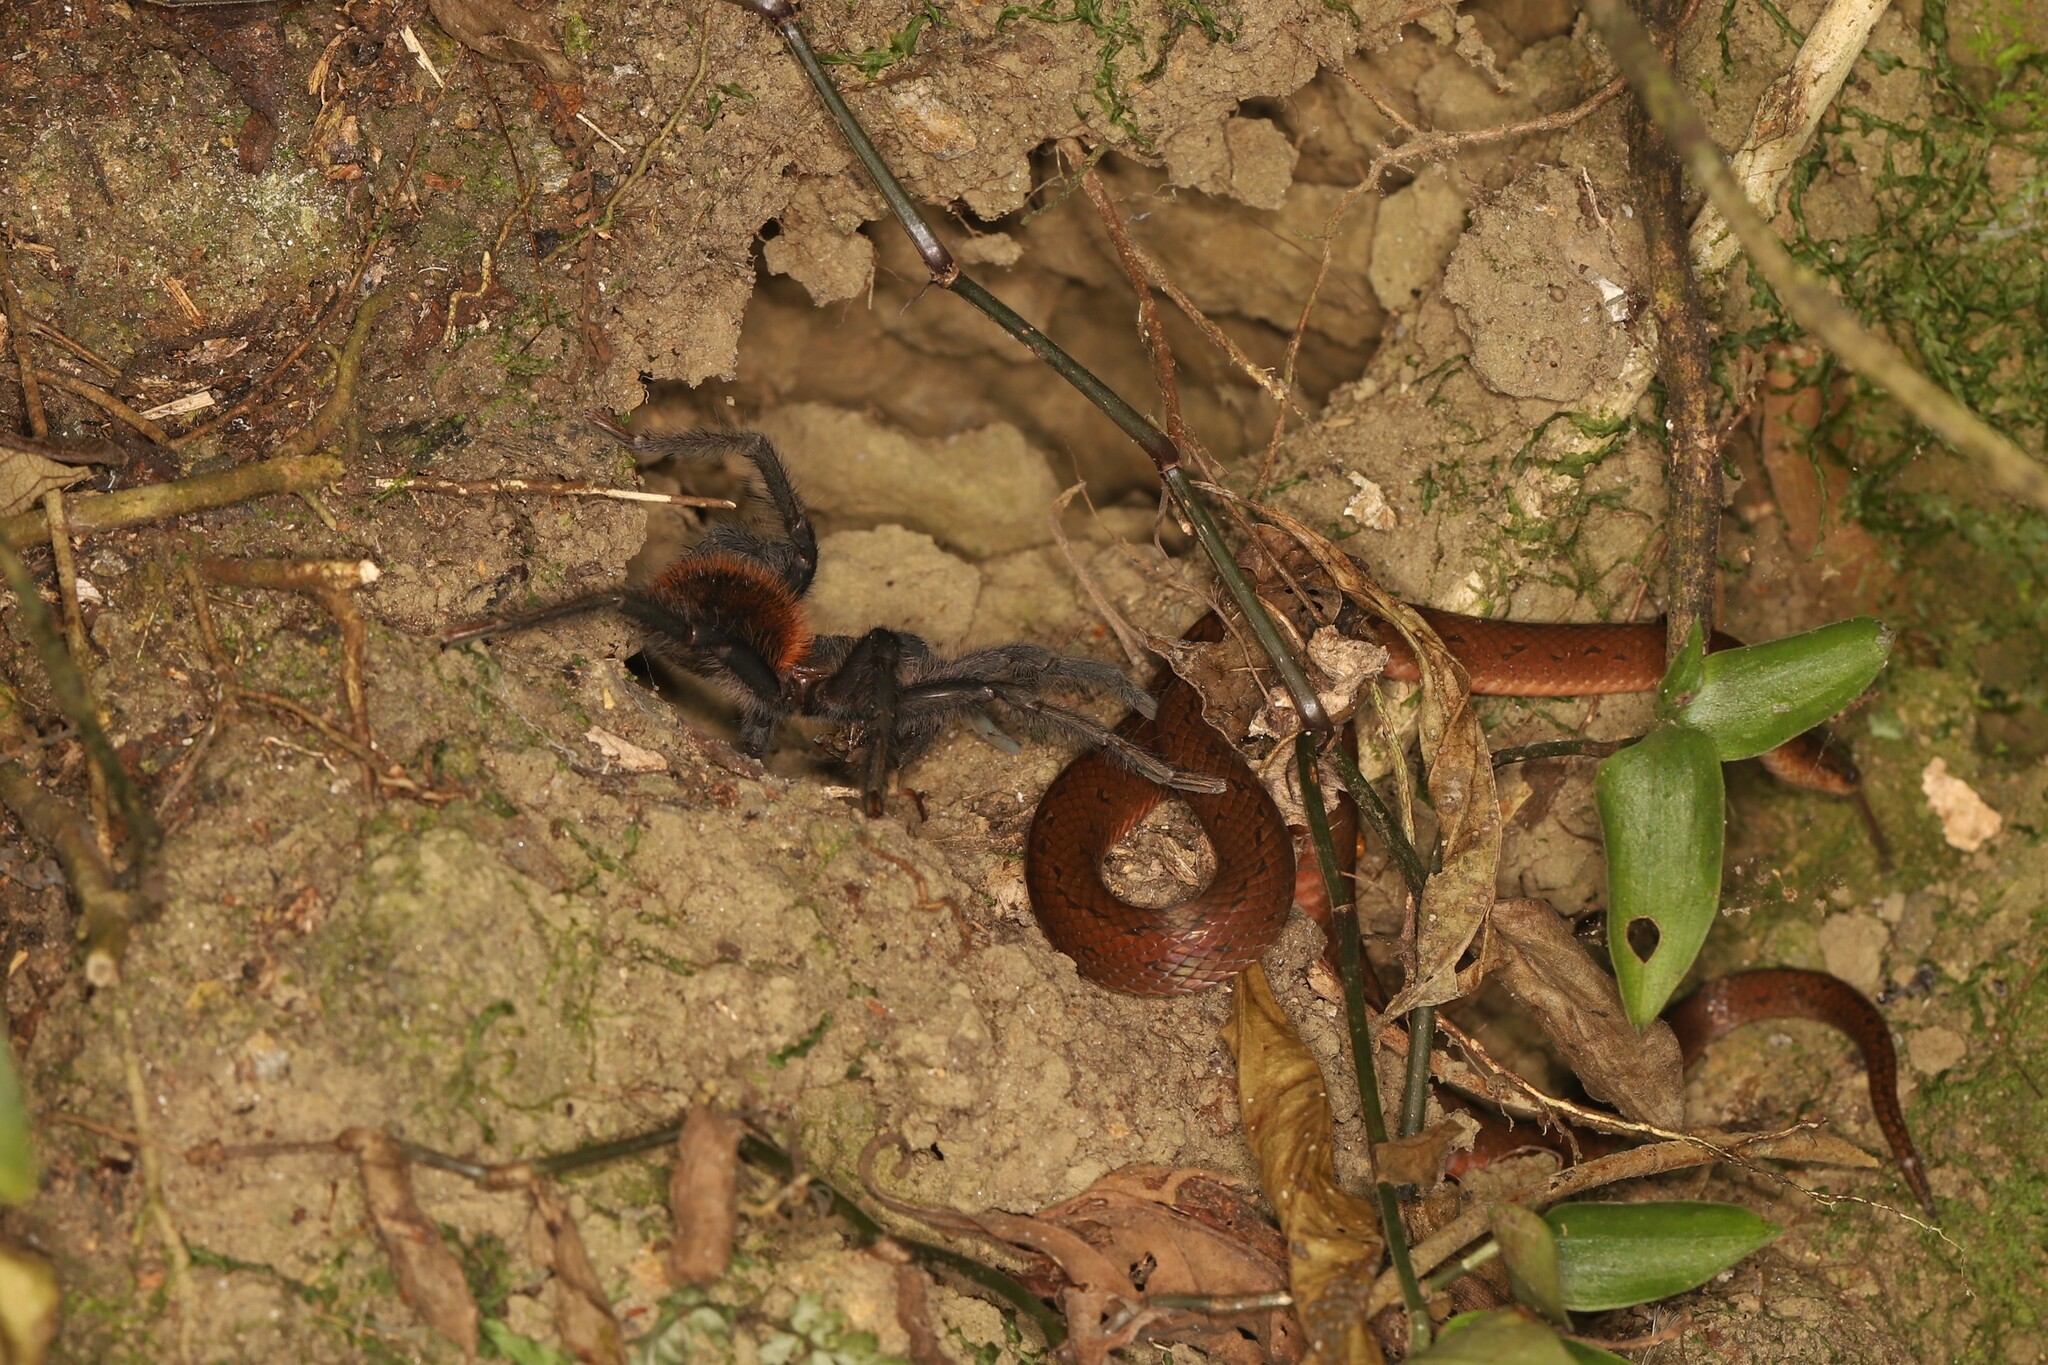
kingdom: Animalia
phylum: Arthropoda
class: Arachnida
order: Araneae
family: Theraphosidae
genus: Kankuamo
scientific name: Kankuamo marquezi
